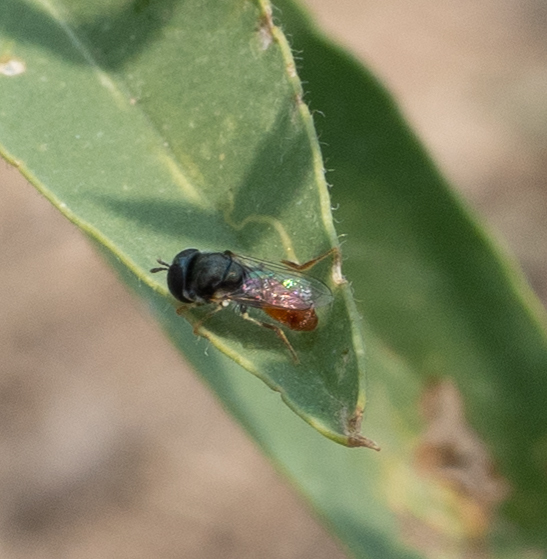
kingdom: Animalia
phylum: Arthropoda
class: Insecta
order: Diptera
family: Syrphidae
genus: Paragus
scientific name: Paragus haemorrhous
